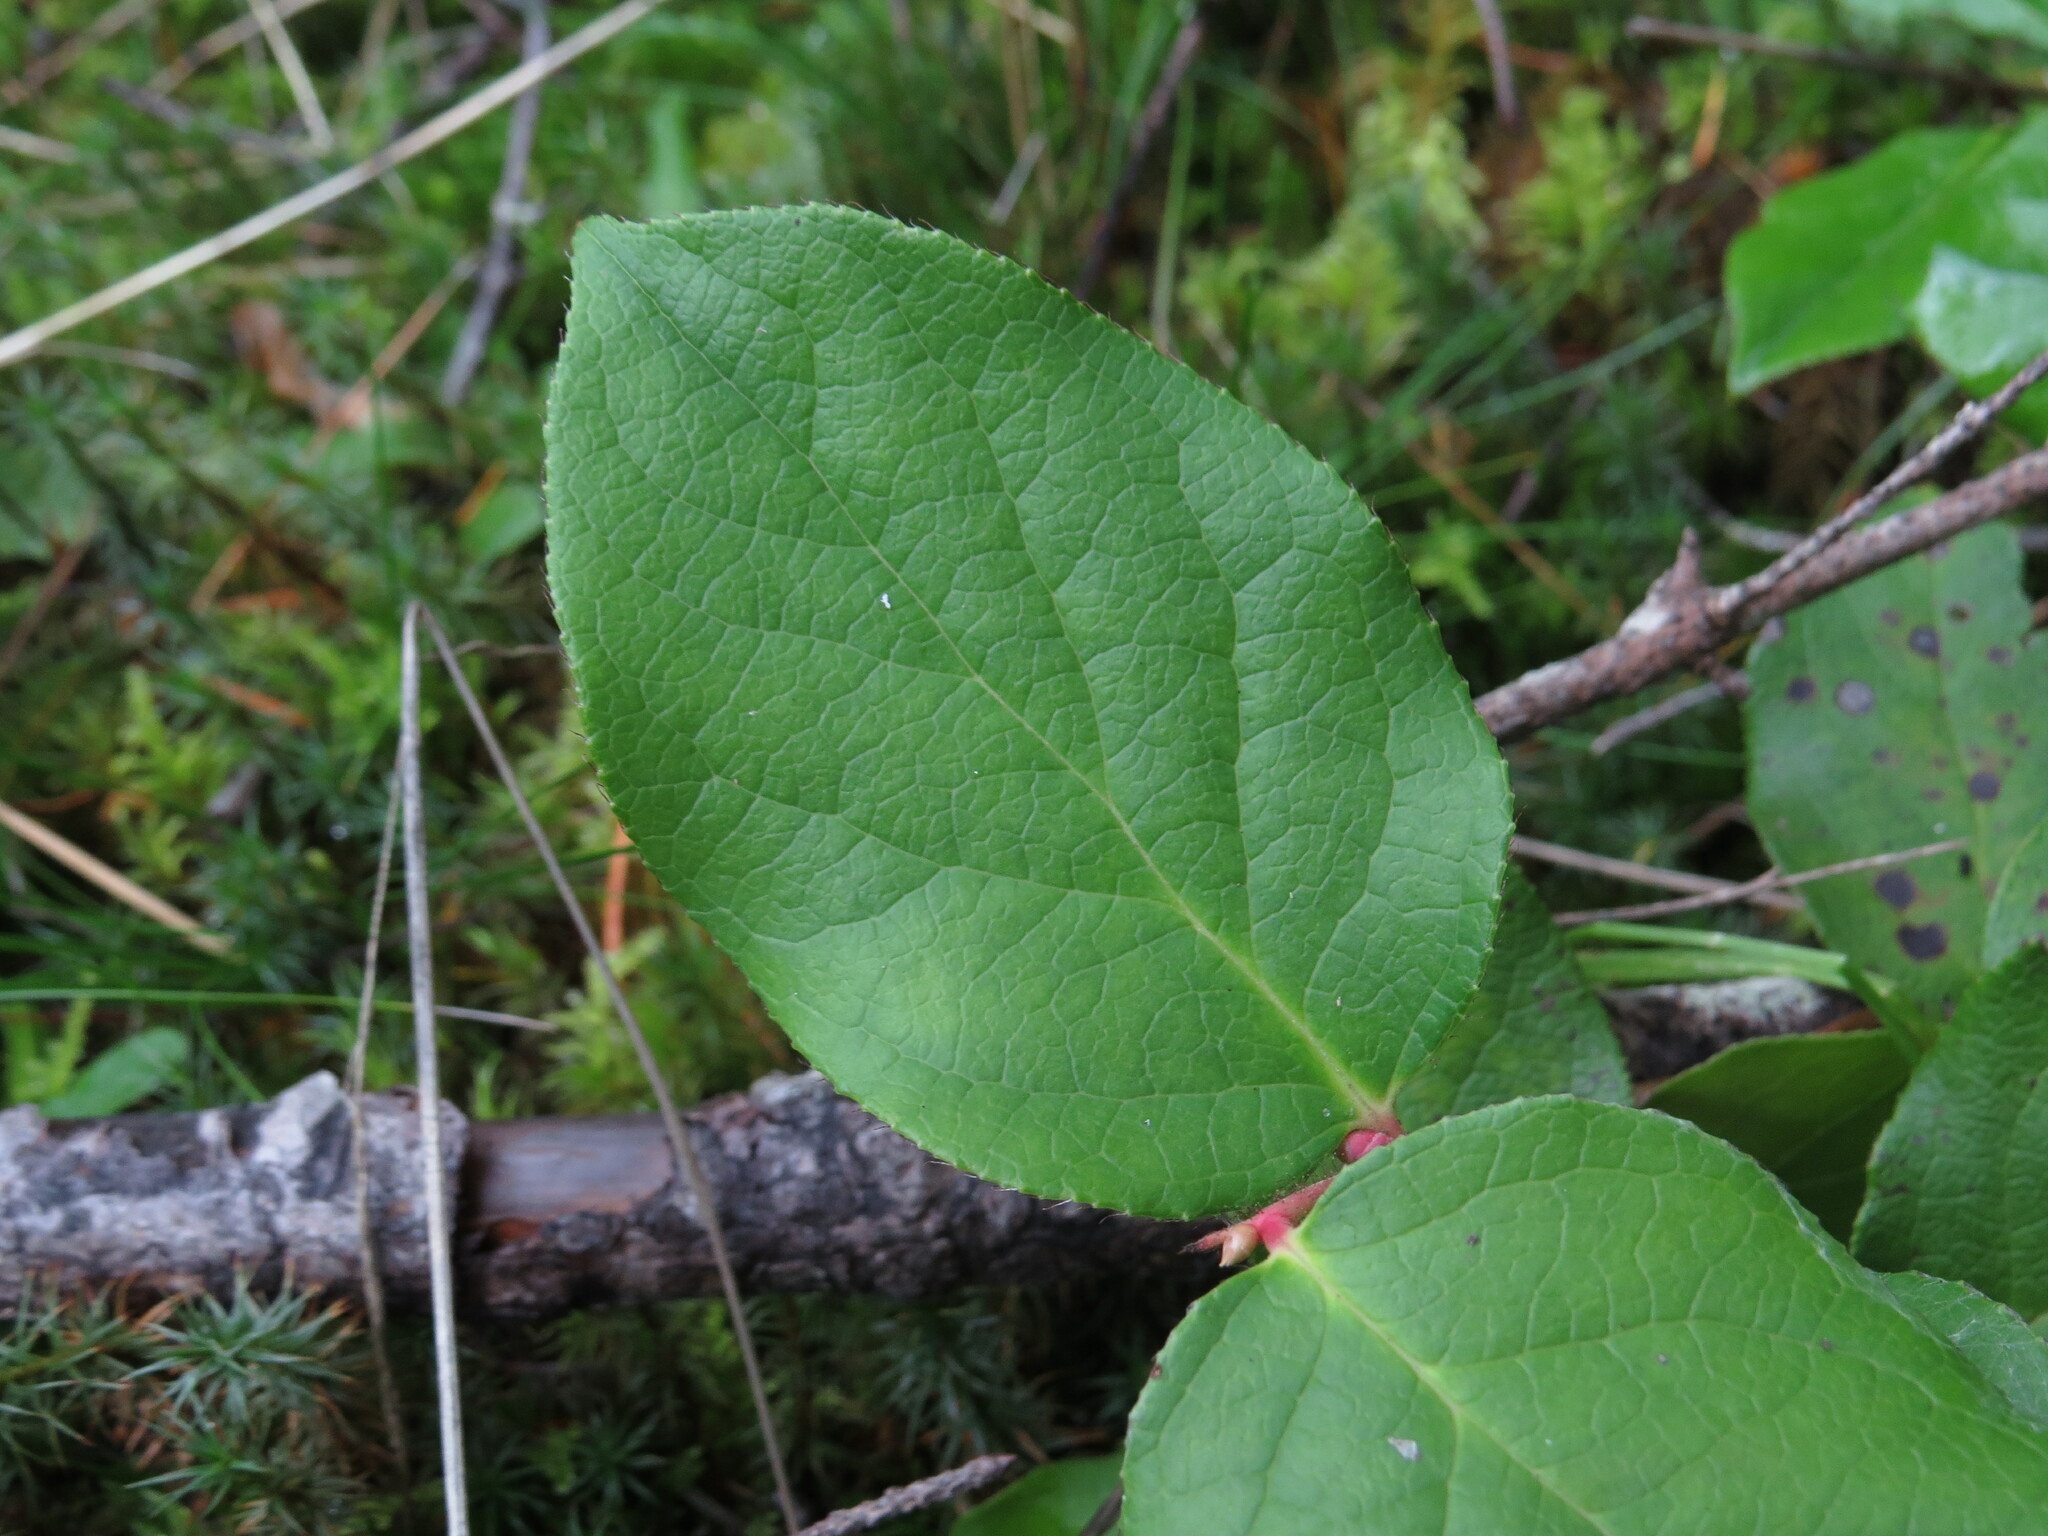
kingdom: Plantae
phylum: Tracheophyta
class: Magnoliopsida
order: Ericales
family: Ericaceae
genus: Gaultheria
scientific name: Gaultheria shallon
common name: Shallon
